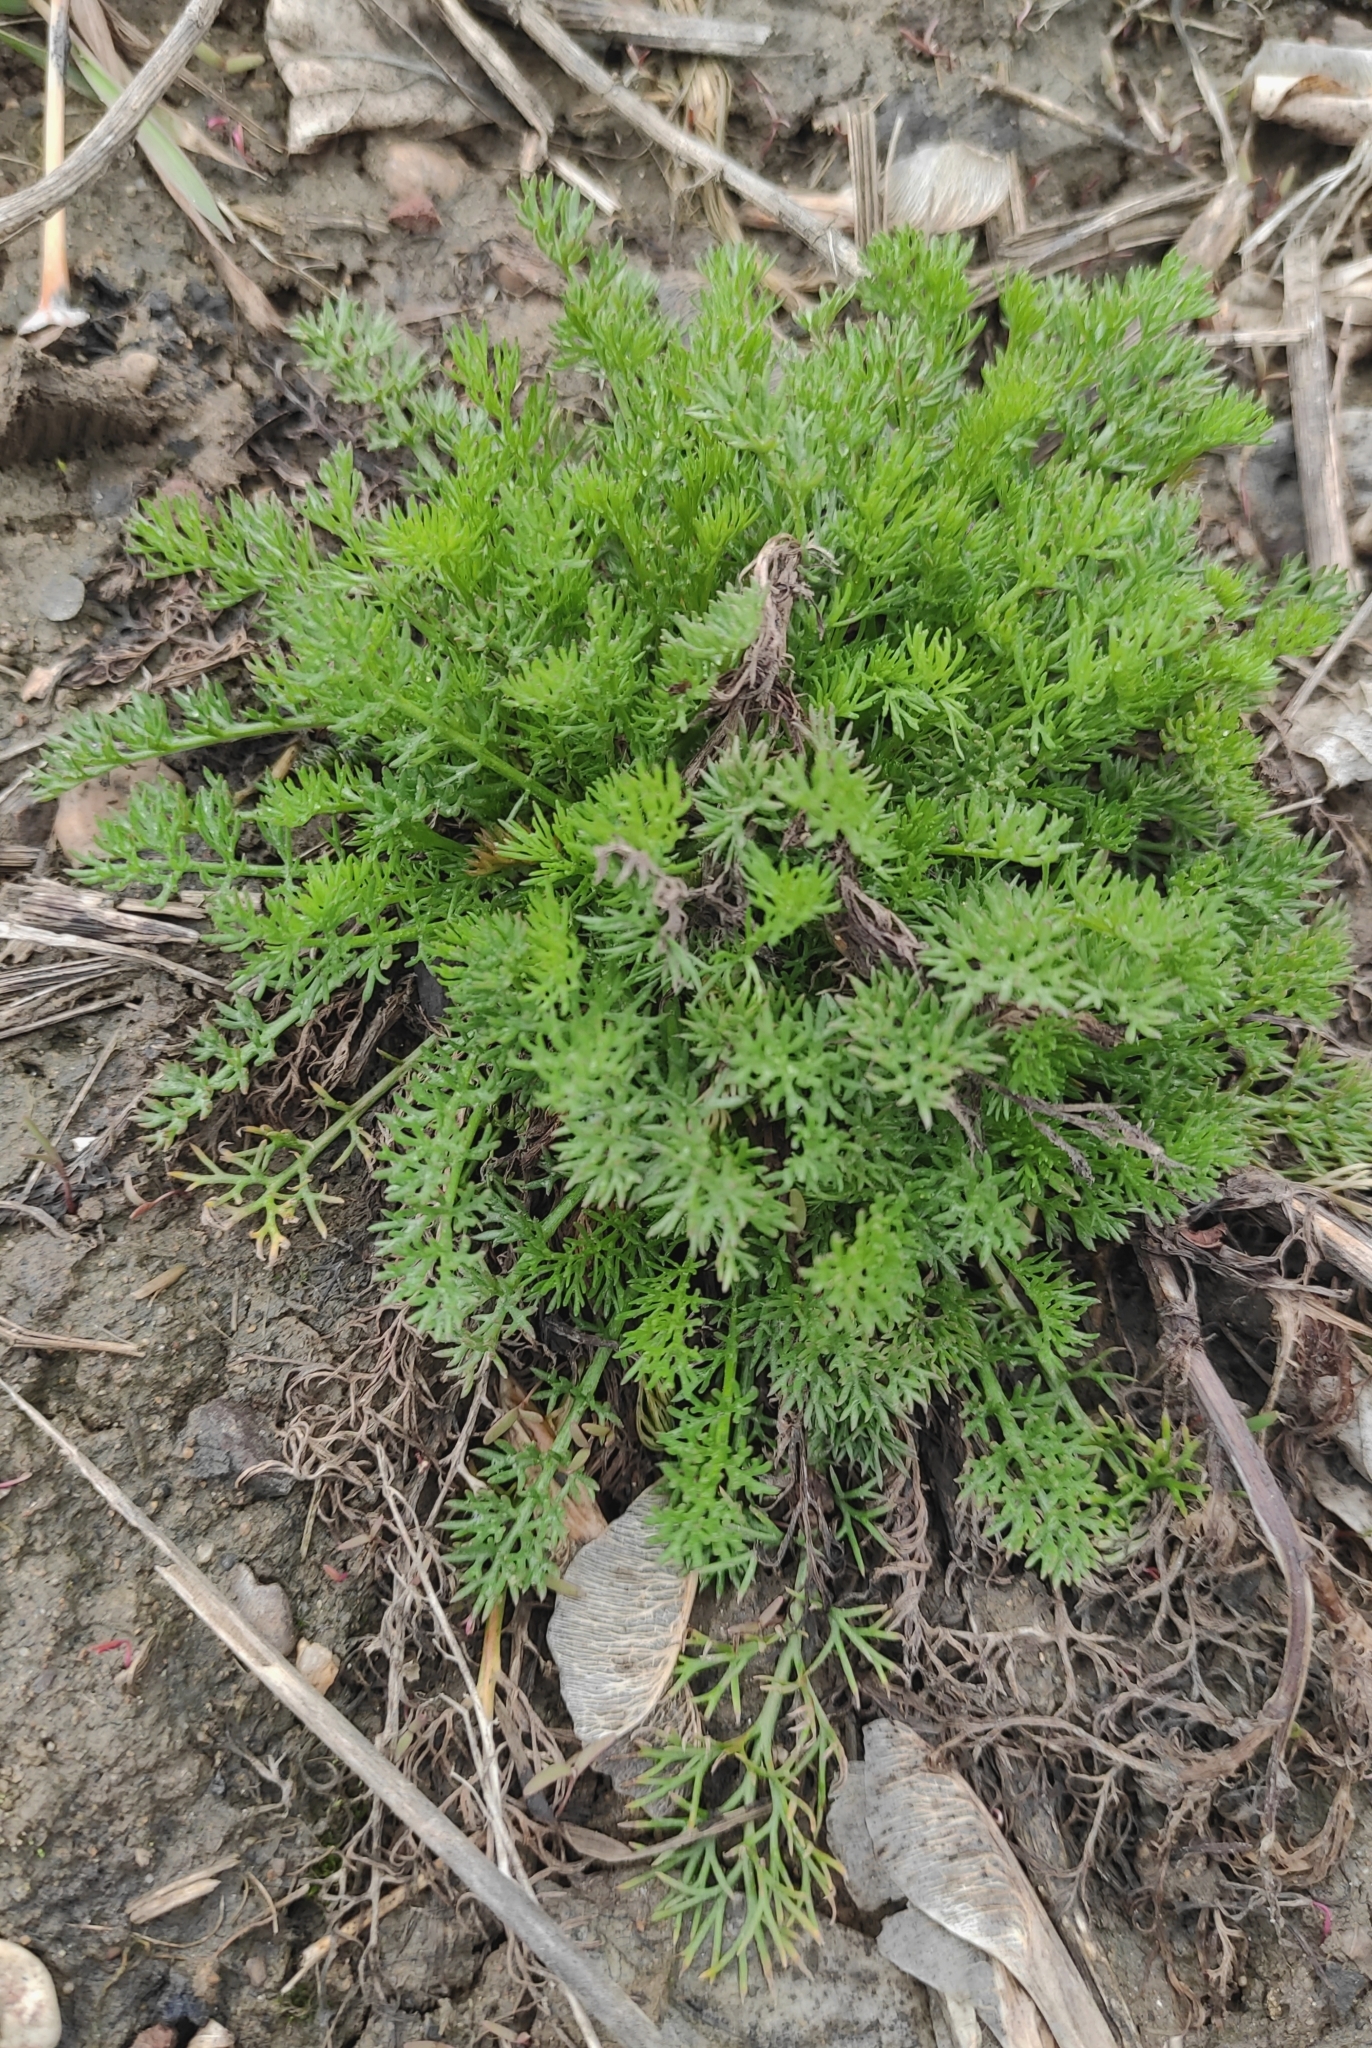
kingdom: Plantae
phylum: Tracheophyta
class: Magnoliopsida
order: Asterales
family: Asteraceae
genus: Tripleurospermum
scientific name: Tripleurospermum inodorum
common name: Scentless mayweed
